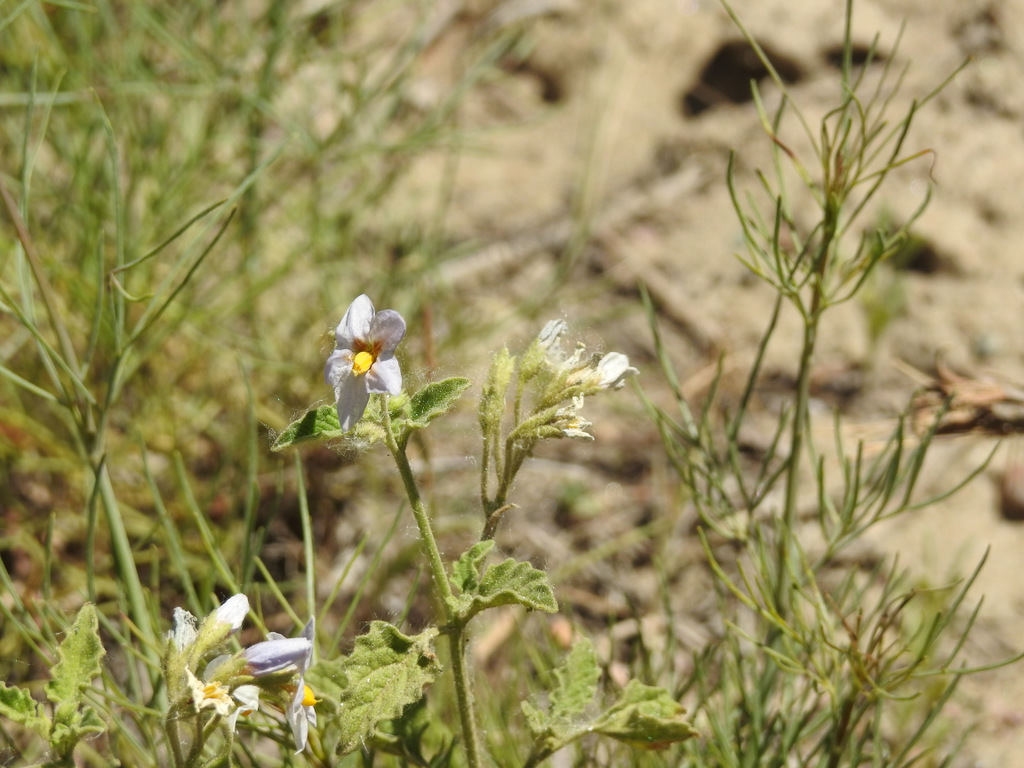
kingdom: Plantae
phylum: Tracheophyta
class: Magnoliopsida
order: Solanales
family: Solanaceae
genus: Solanum
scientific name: Solanum tweedianum
